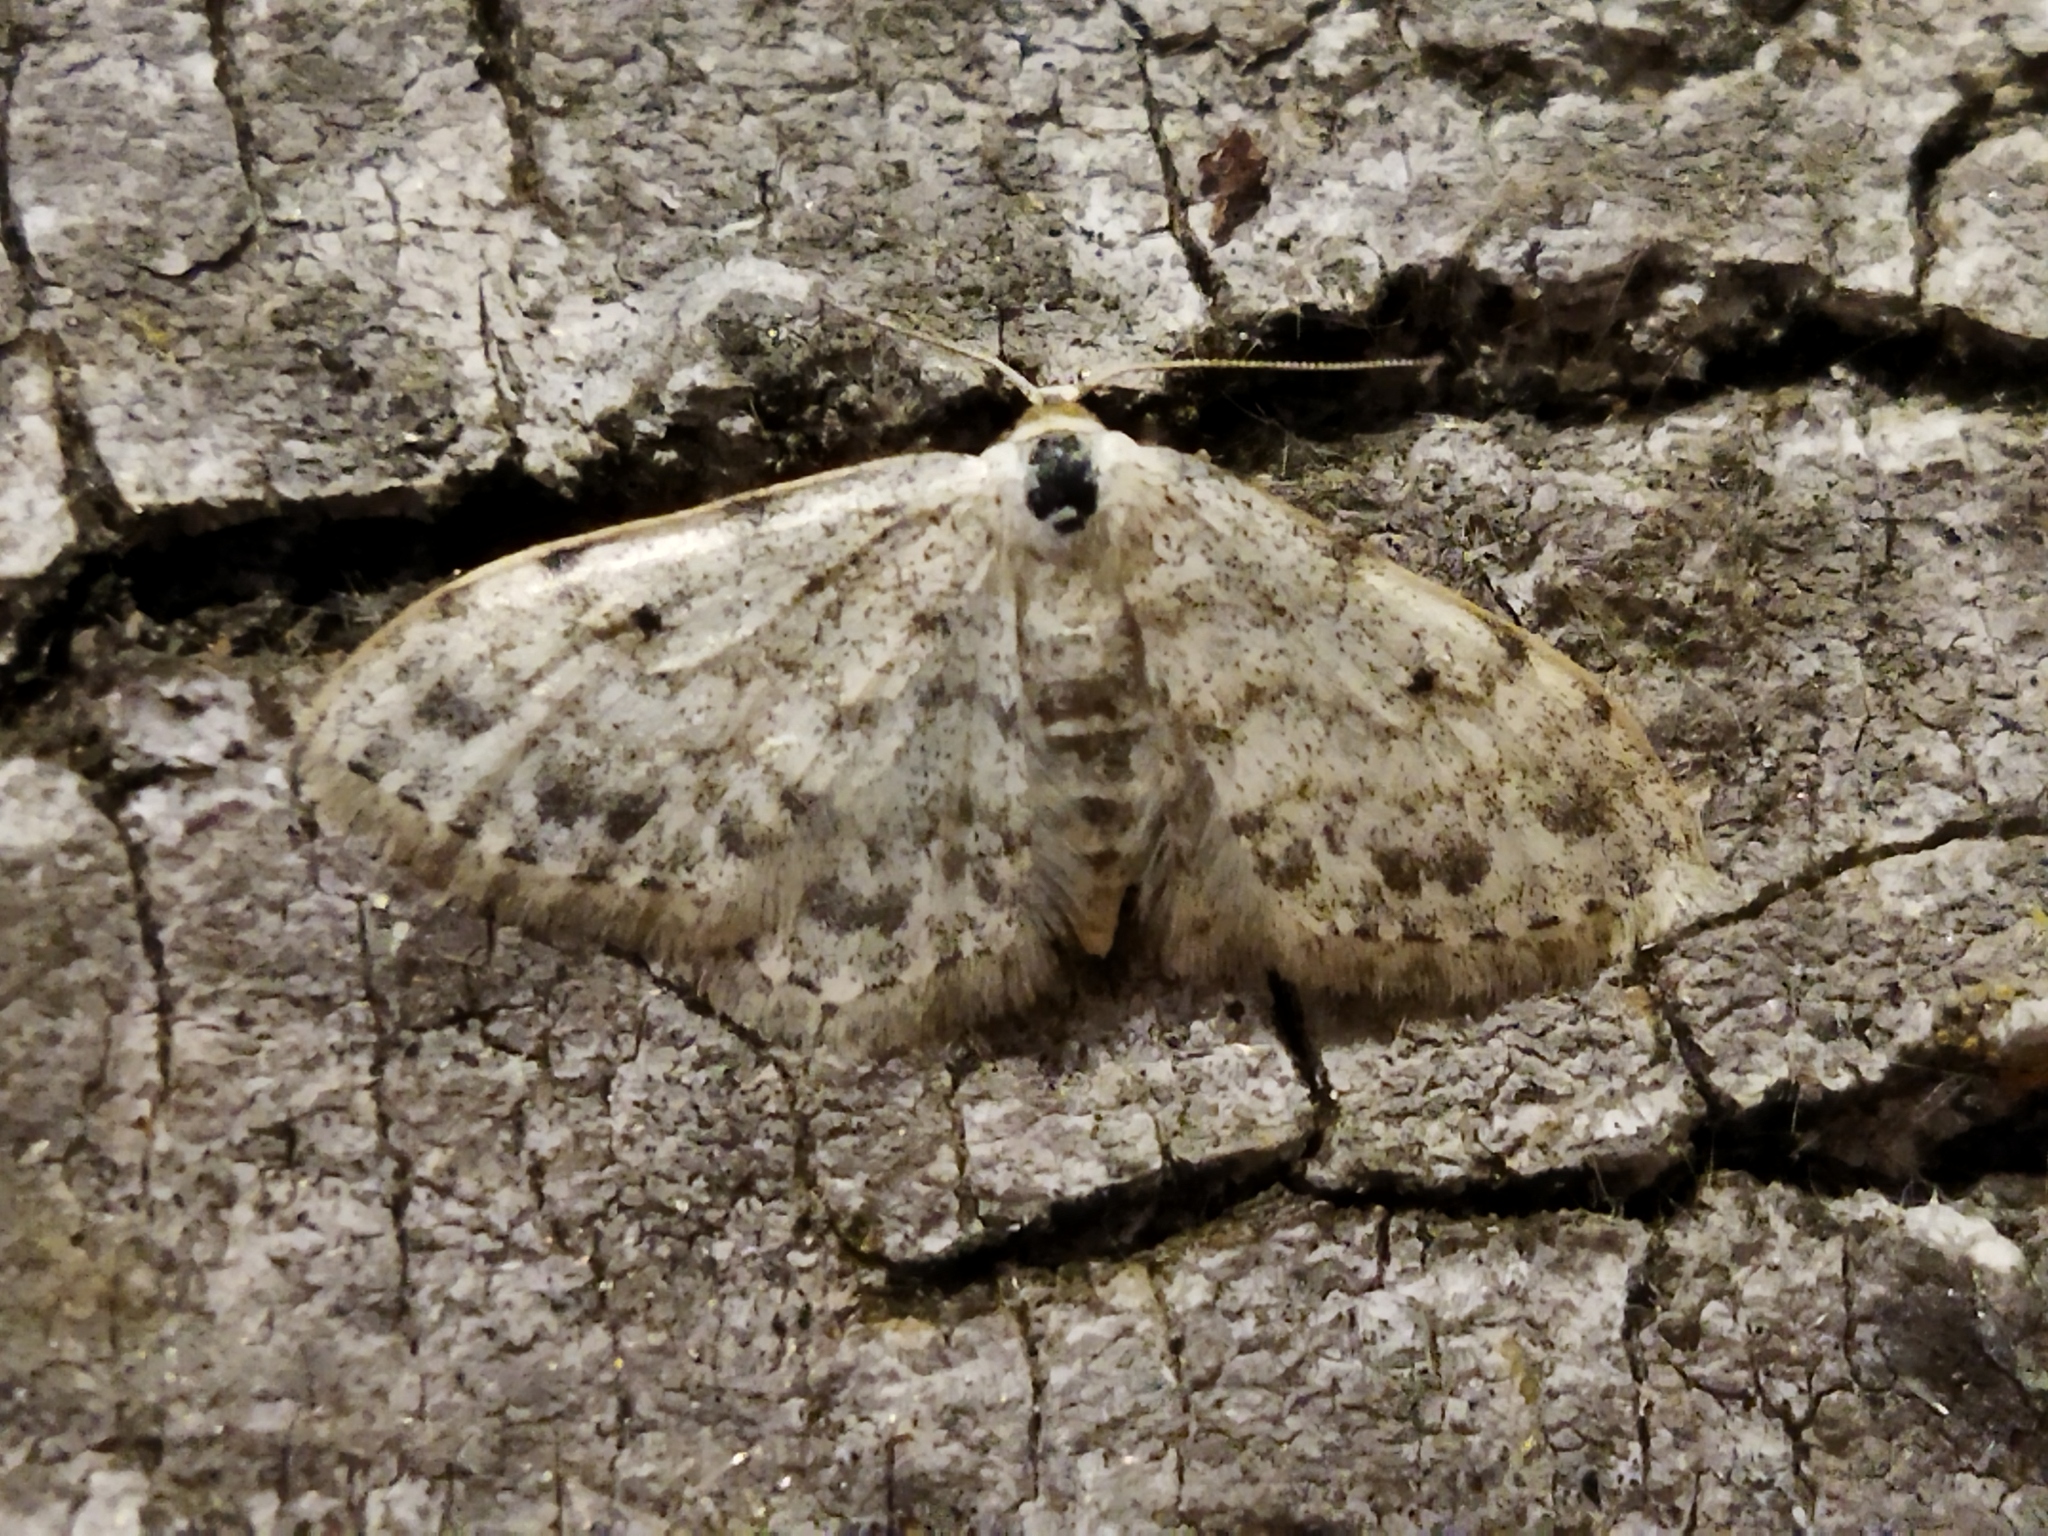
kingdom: Animalia
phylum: Arthropoda
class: Insecta
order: Lepidoptera
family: Geometridae
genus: Idaea
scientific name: Idaea camparia
